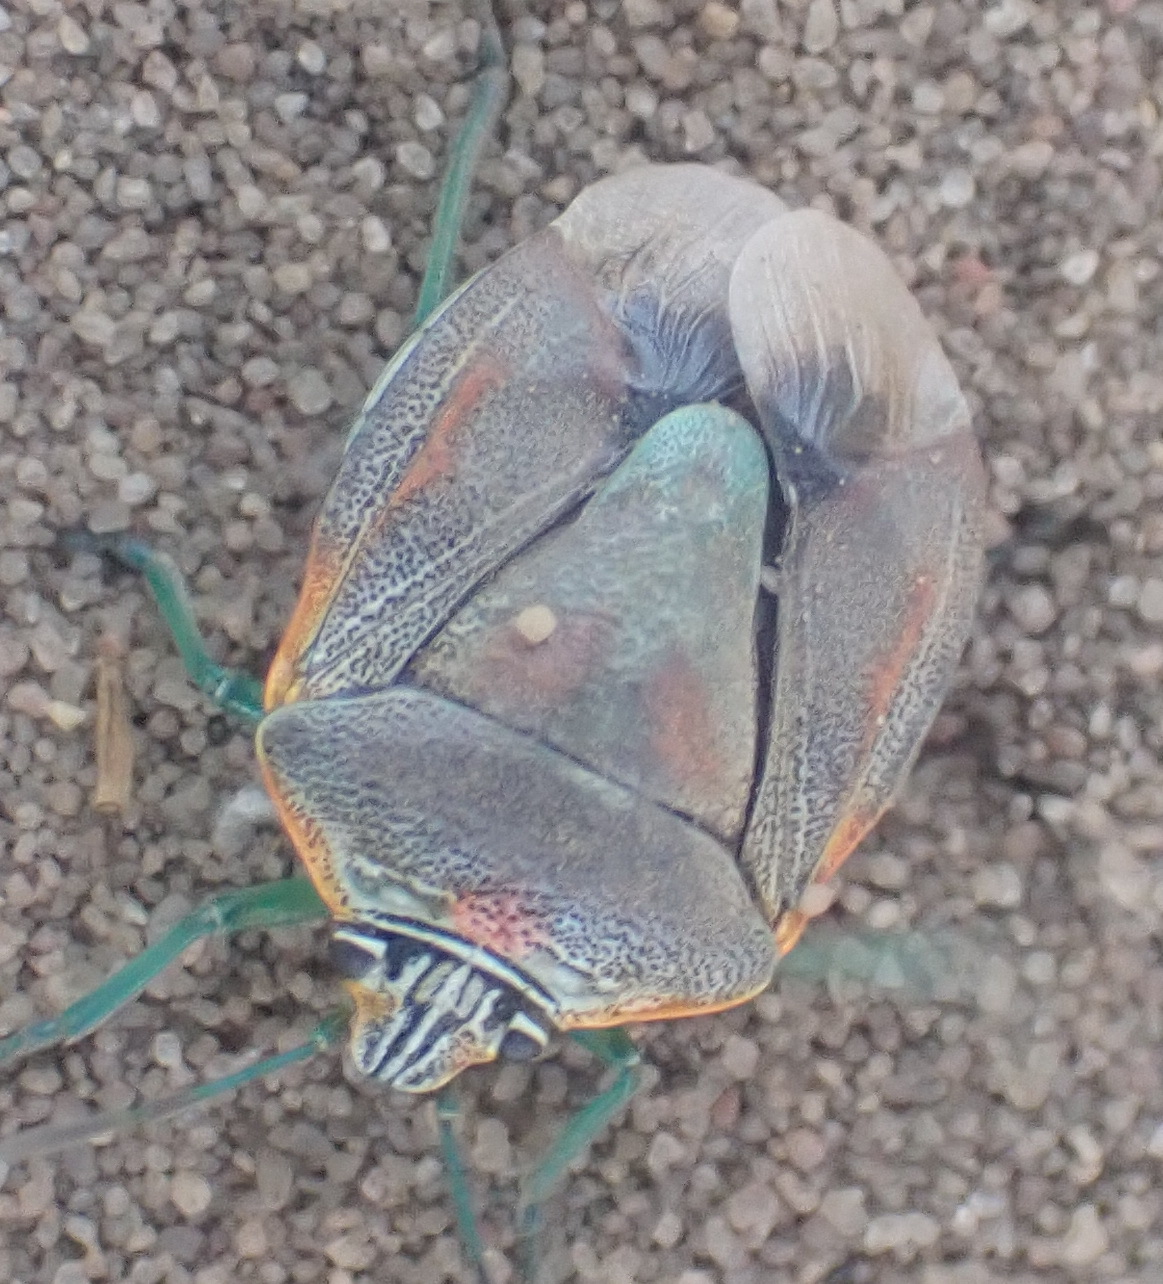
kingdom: Animalia
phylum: Arthropoda
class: Insecta
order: Hemiptera
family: Pentatomidae
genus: Antestiopsis
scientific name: Antestiopsis thunbergii
